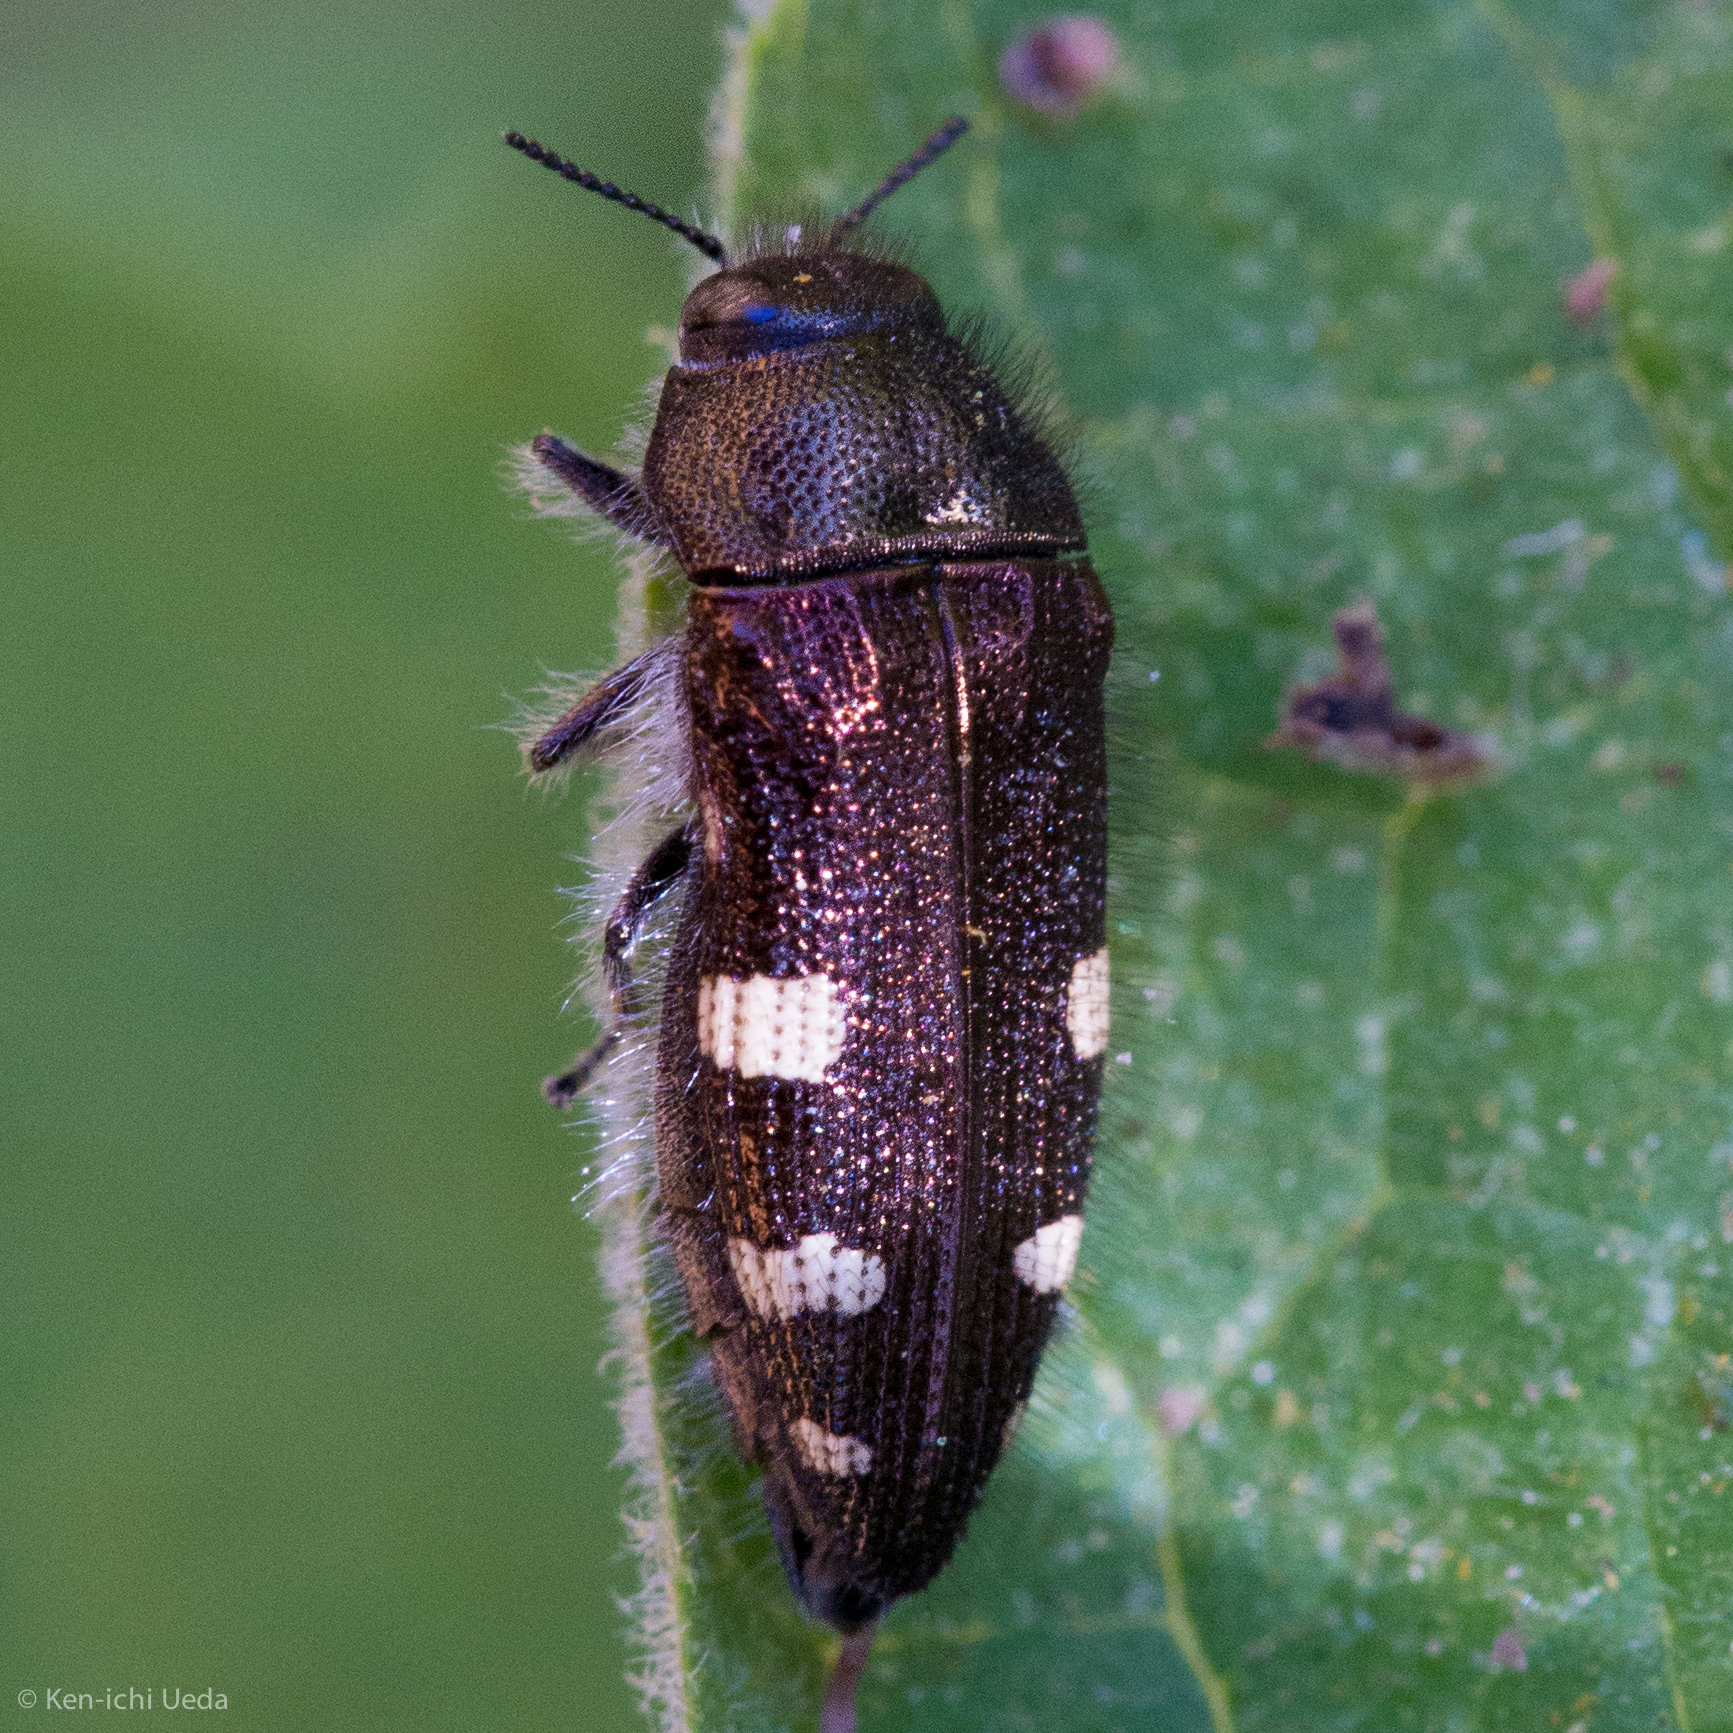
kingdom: Animalia
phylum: Arthropoda
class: Insecta
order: Coleoptera
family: Buprestidae
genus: Acmaeodera
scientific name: Acmaeodera prorsa
